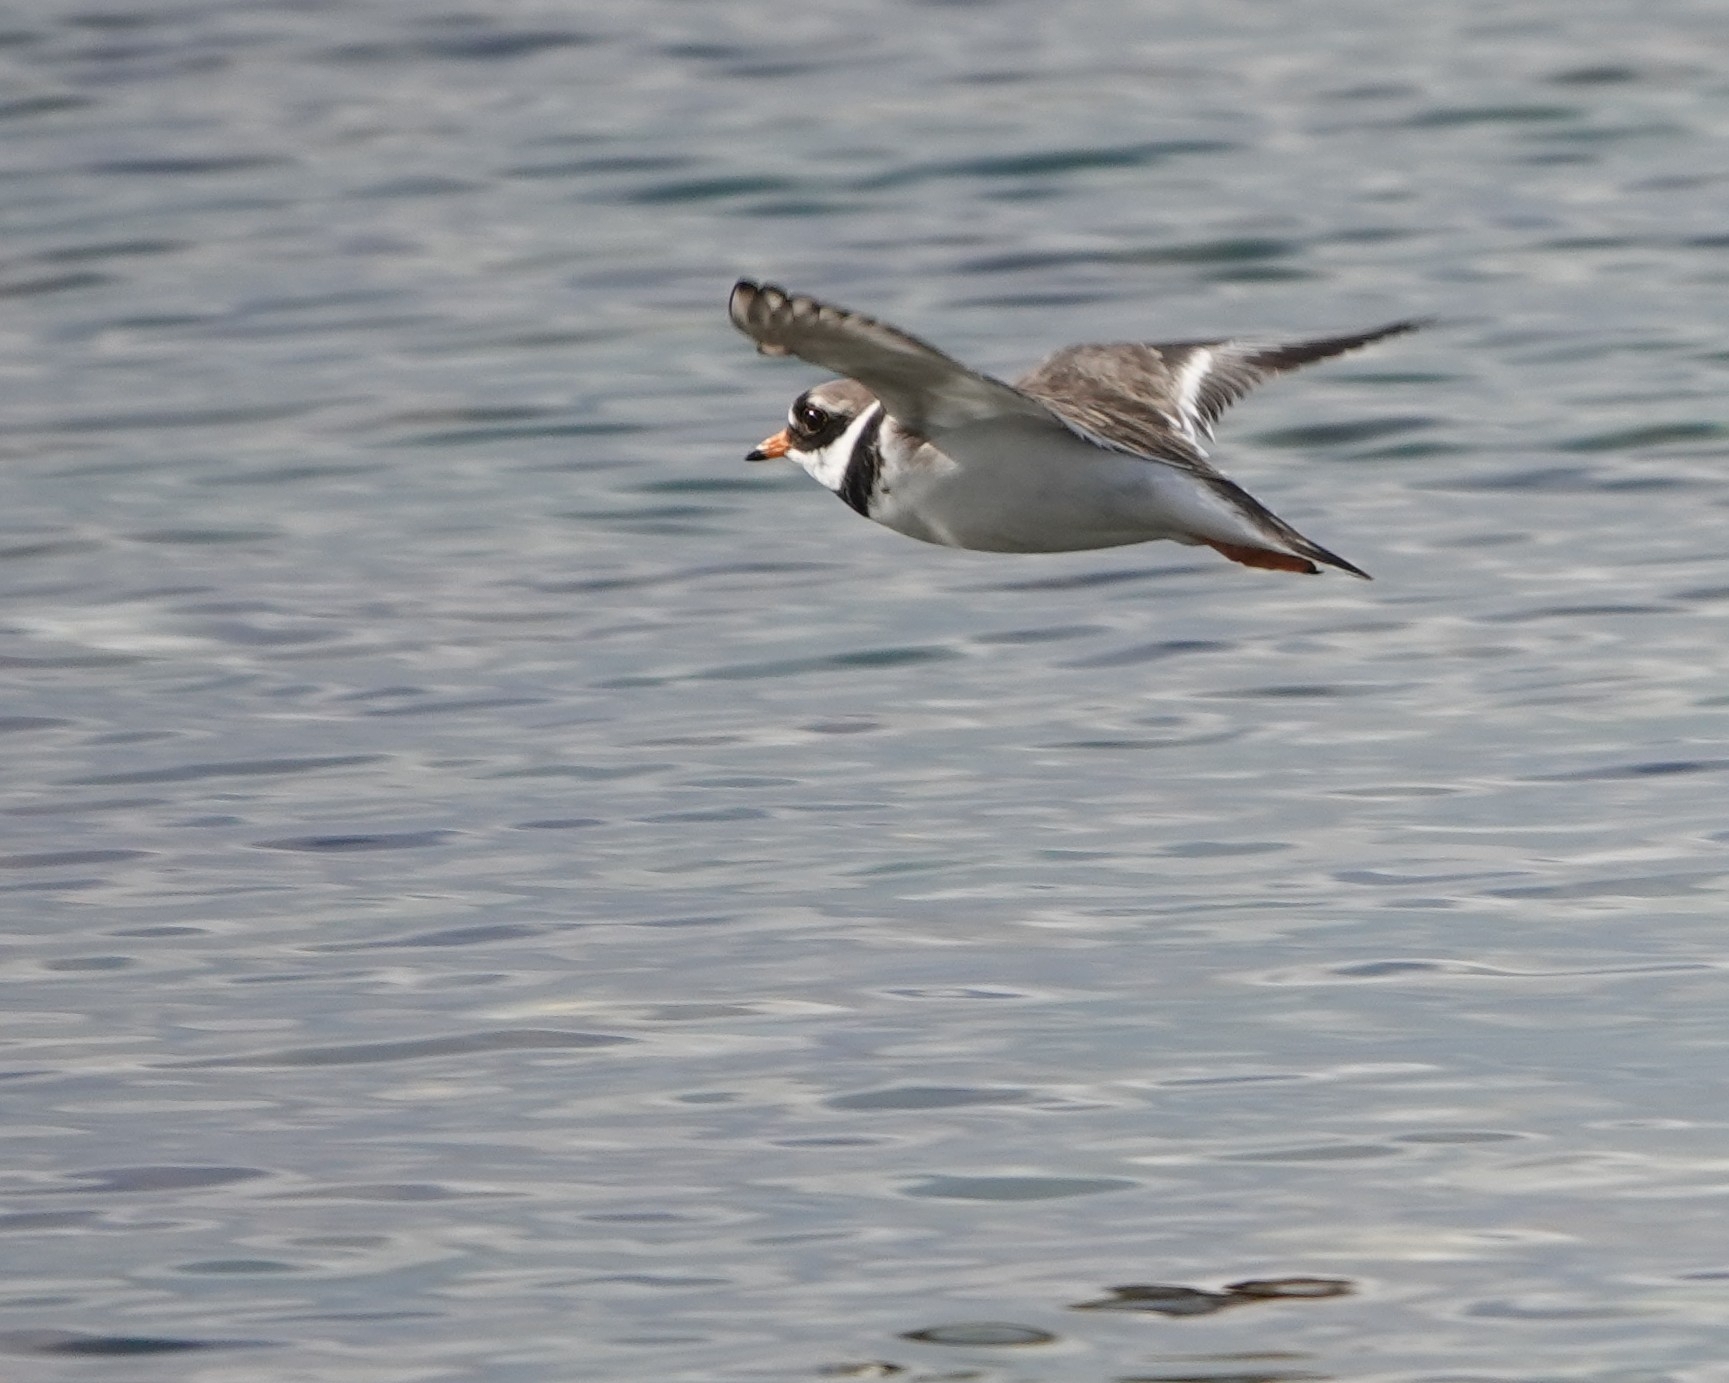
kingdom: Animalia
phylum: Chordata
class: Aves
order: Charadriiformes
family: Charadriidae
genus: Charadrius
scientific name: Charadrius hiaticula
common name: Common ringed plover
